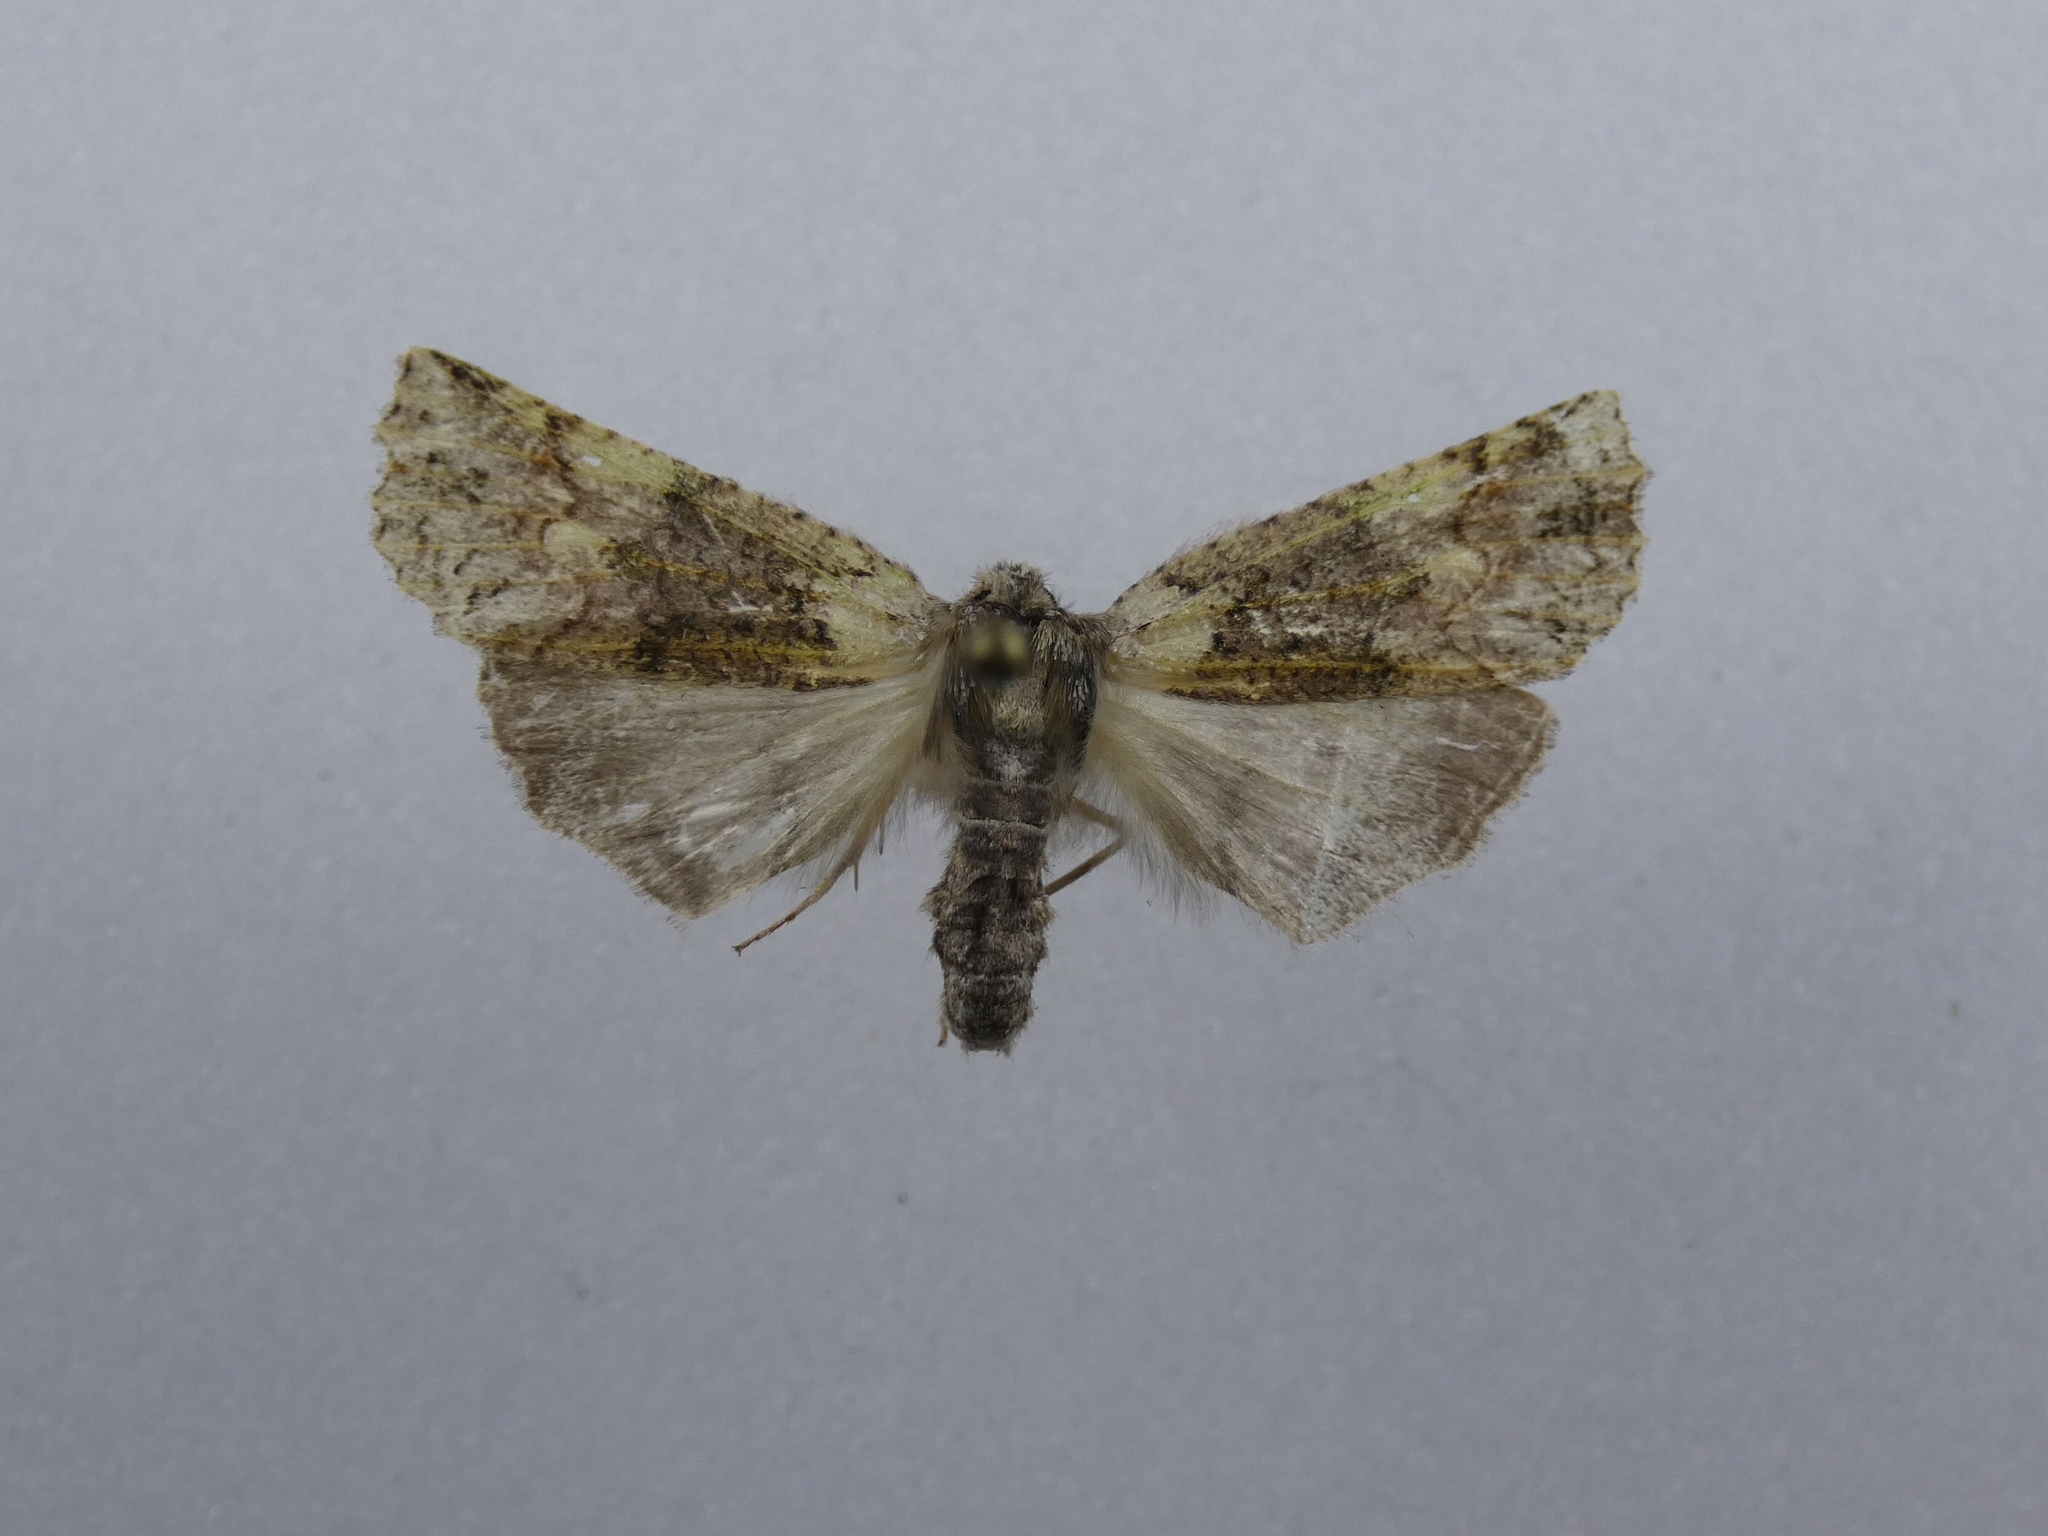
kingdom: Animalia
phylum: Arthropoda
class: Insecta
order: Lepidoptera
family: Geometridae
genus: Declana
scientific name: Declana floccosa
